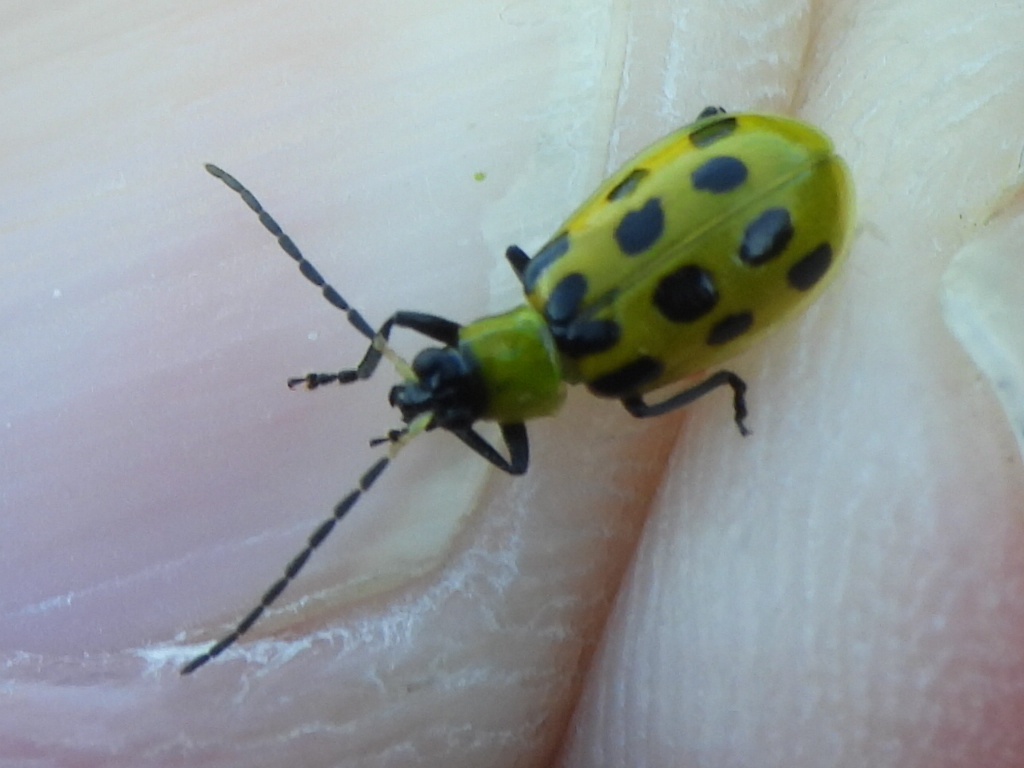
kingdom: Animalia
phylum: Arthropoda
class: Insecta
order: Coleoptera
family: Chrysomelidae
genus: Diabrotica
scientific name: Diabrotica undecimpunctata
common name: Spotted cucumber beetle
